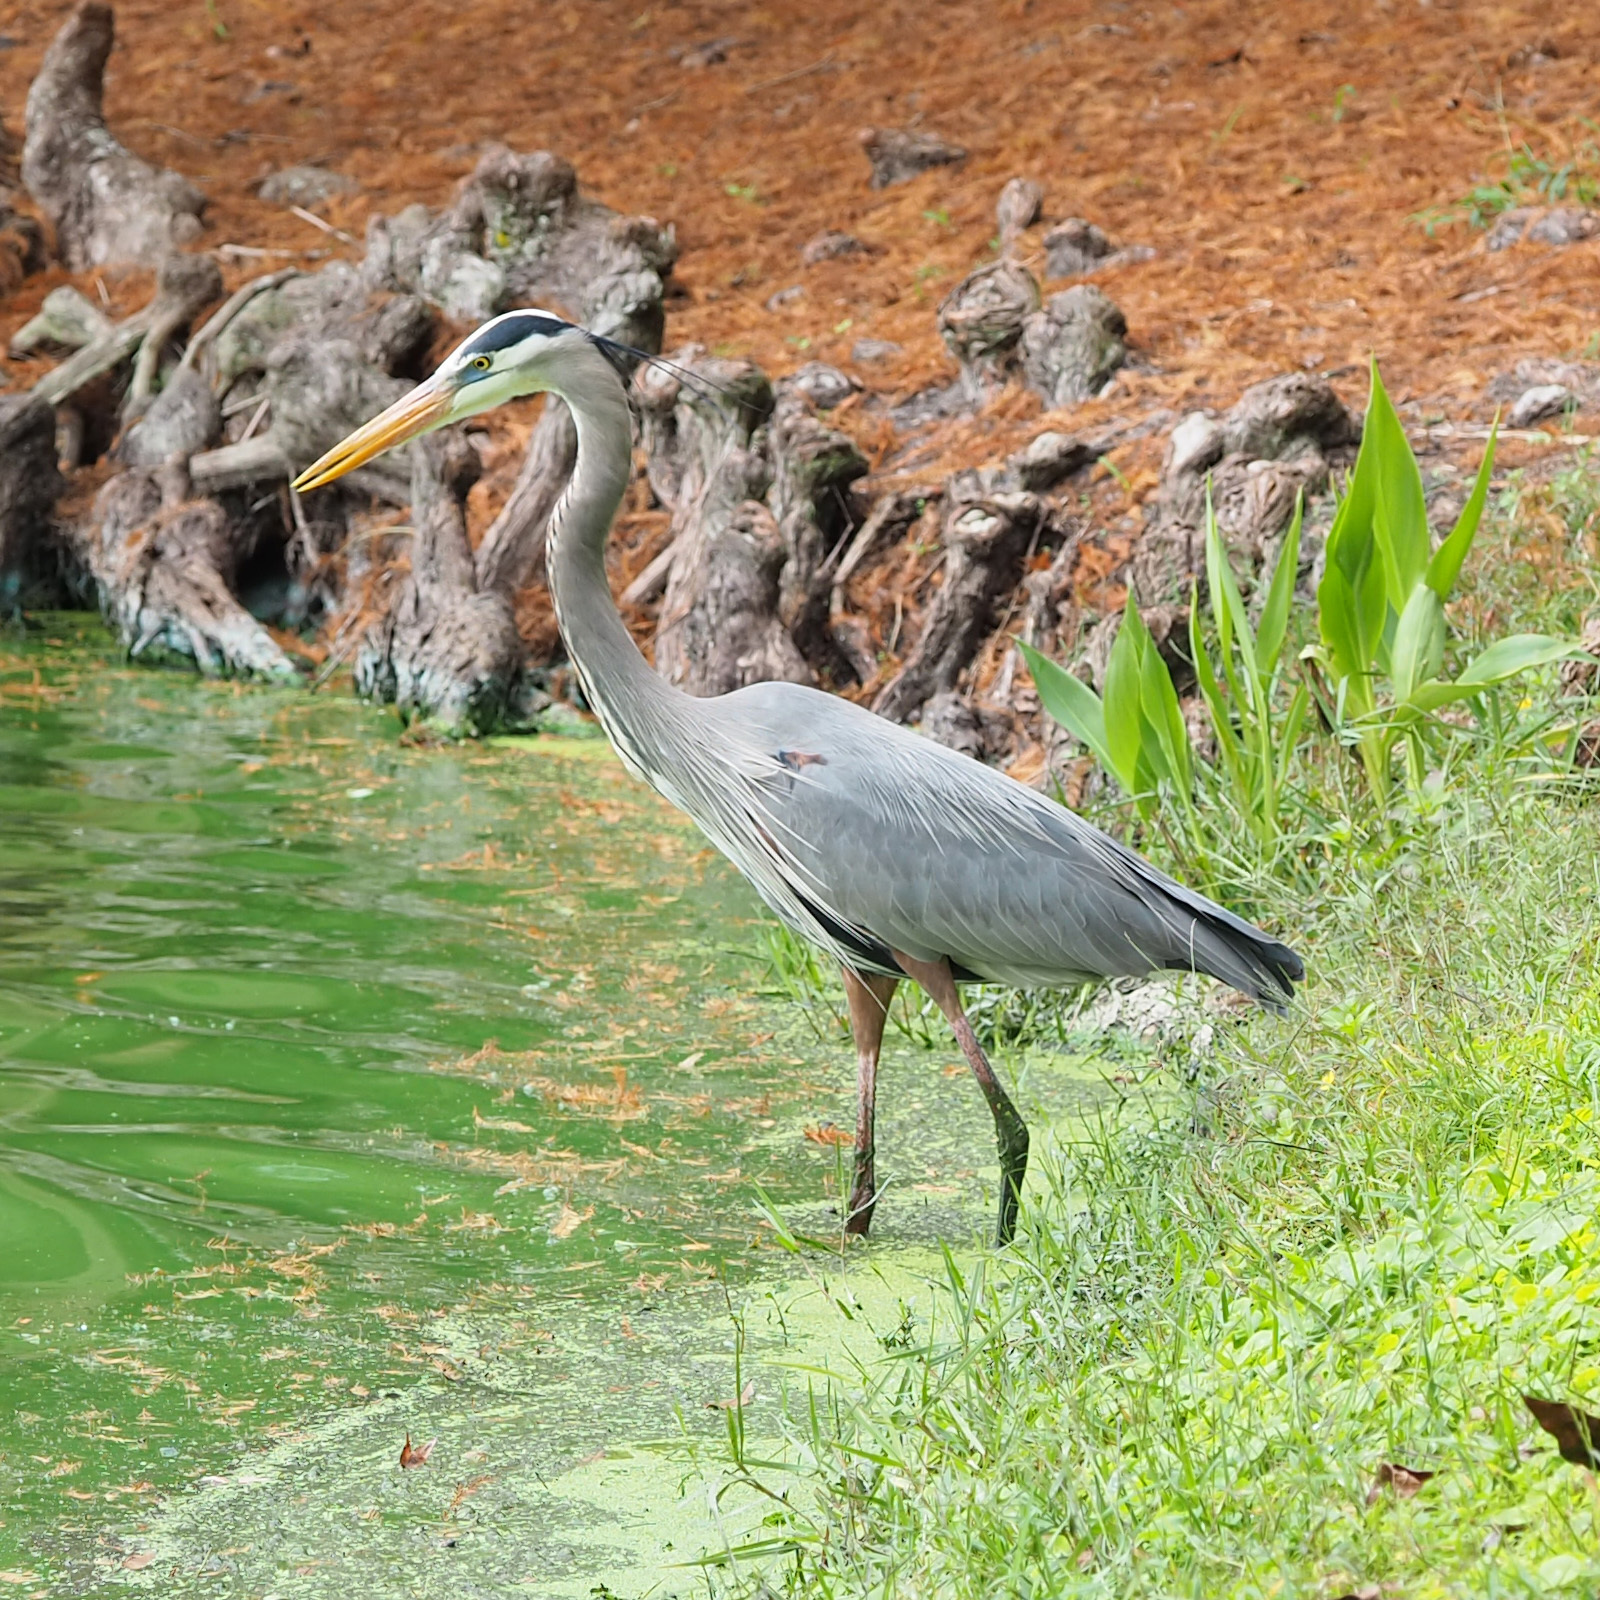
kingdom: Animalia
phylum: Chordata
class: Aves
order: Pelecaniformes
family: Ardeidae
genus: Ardea
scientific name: Ardea herodias
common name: Great blue heron
